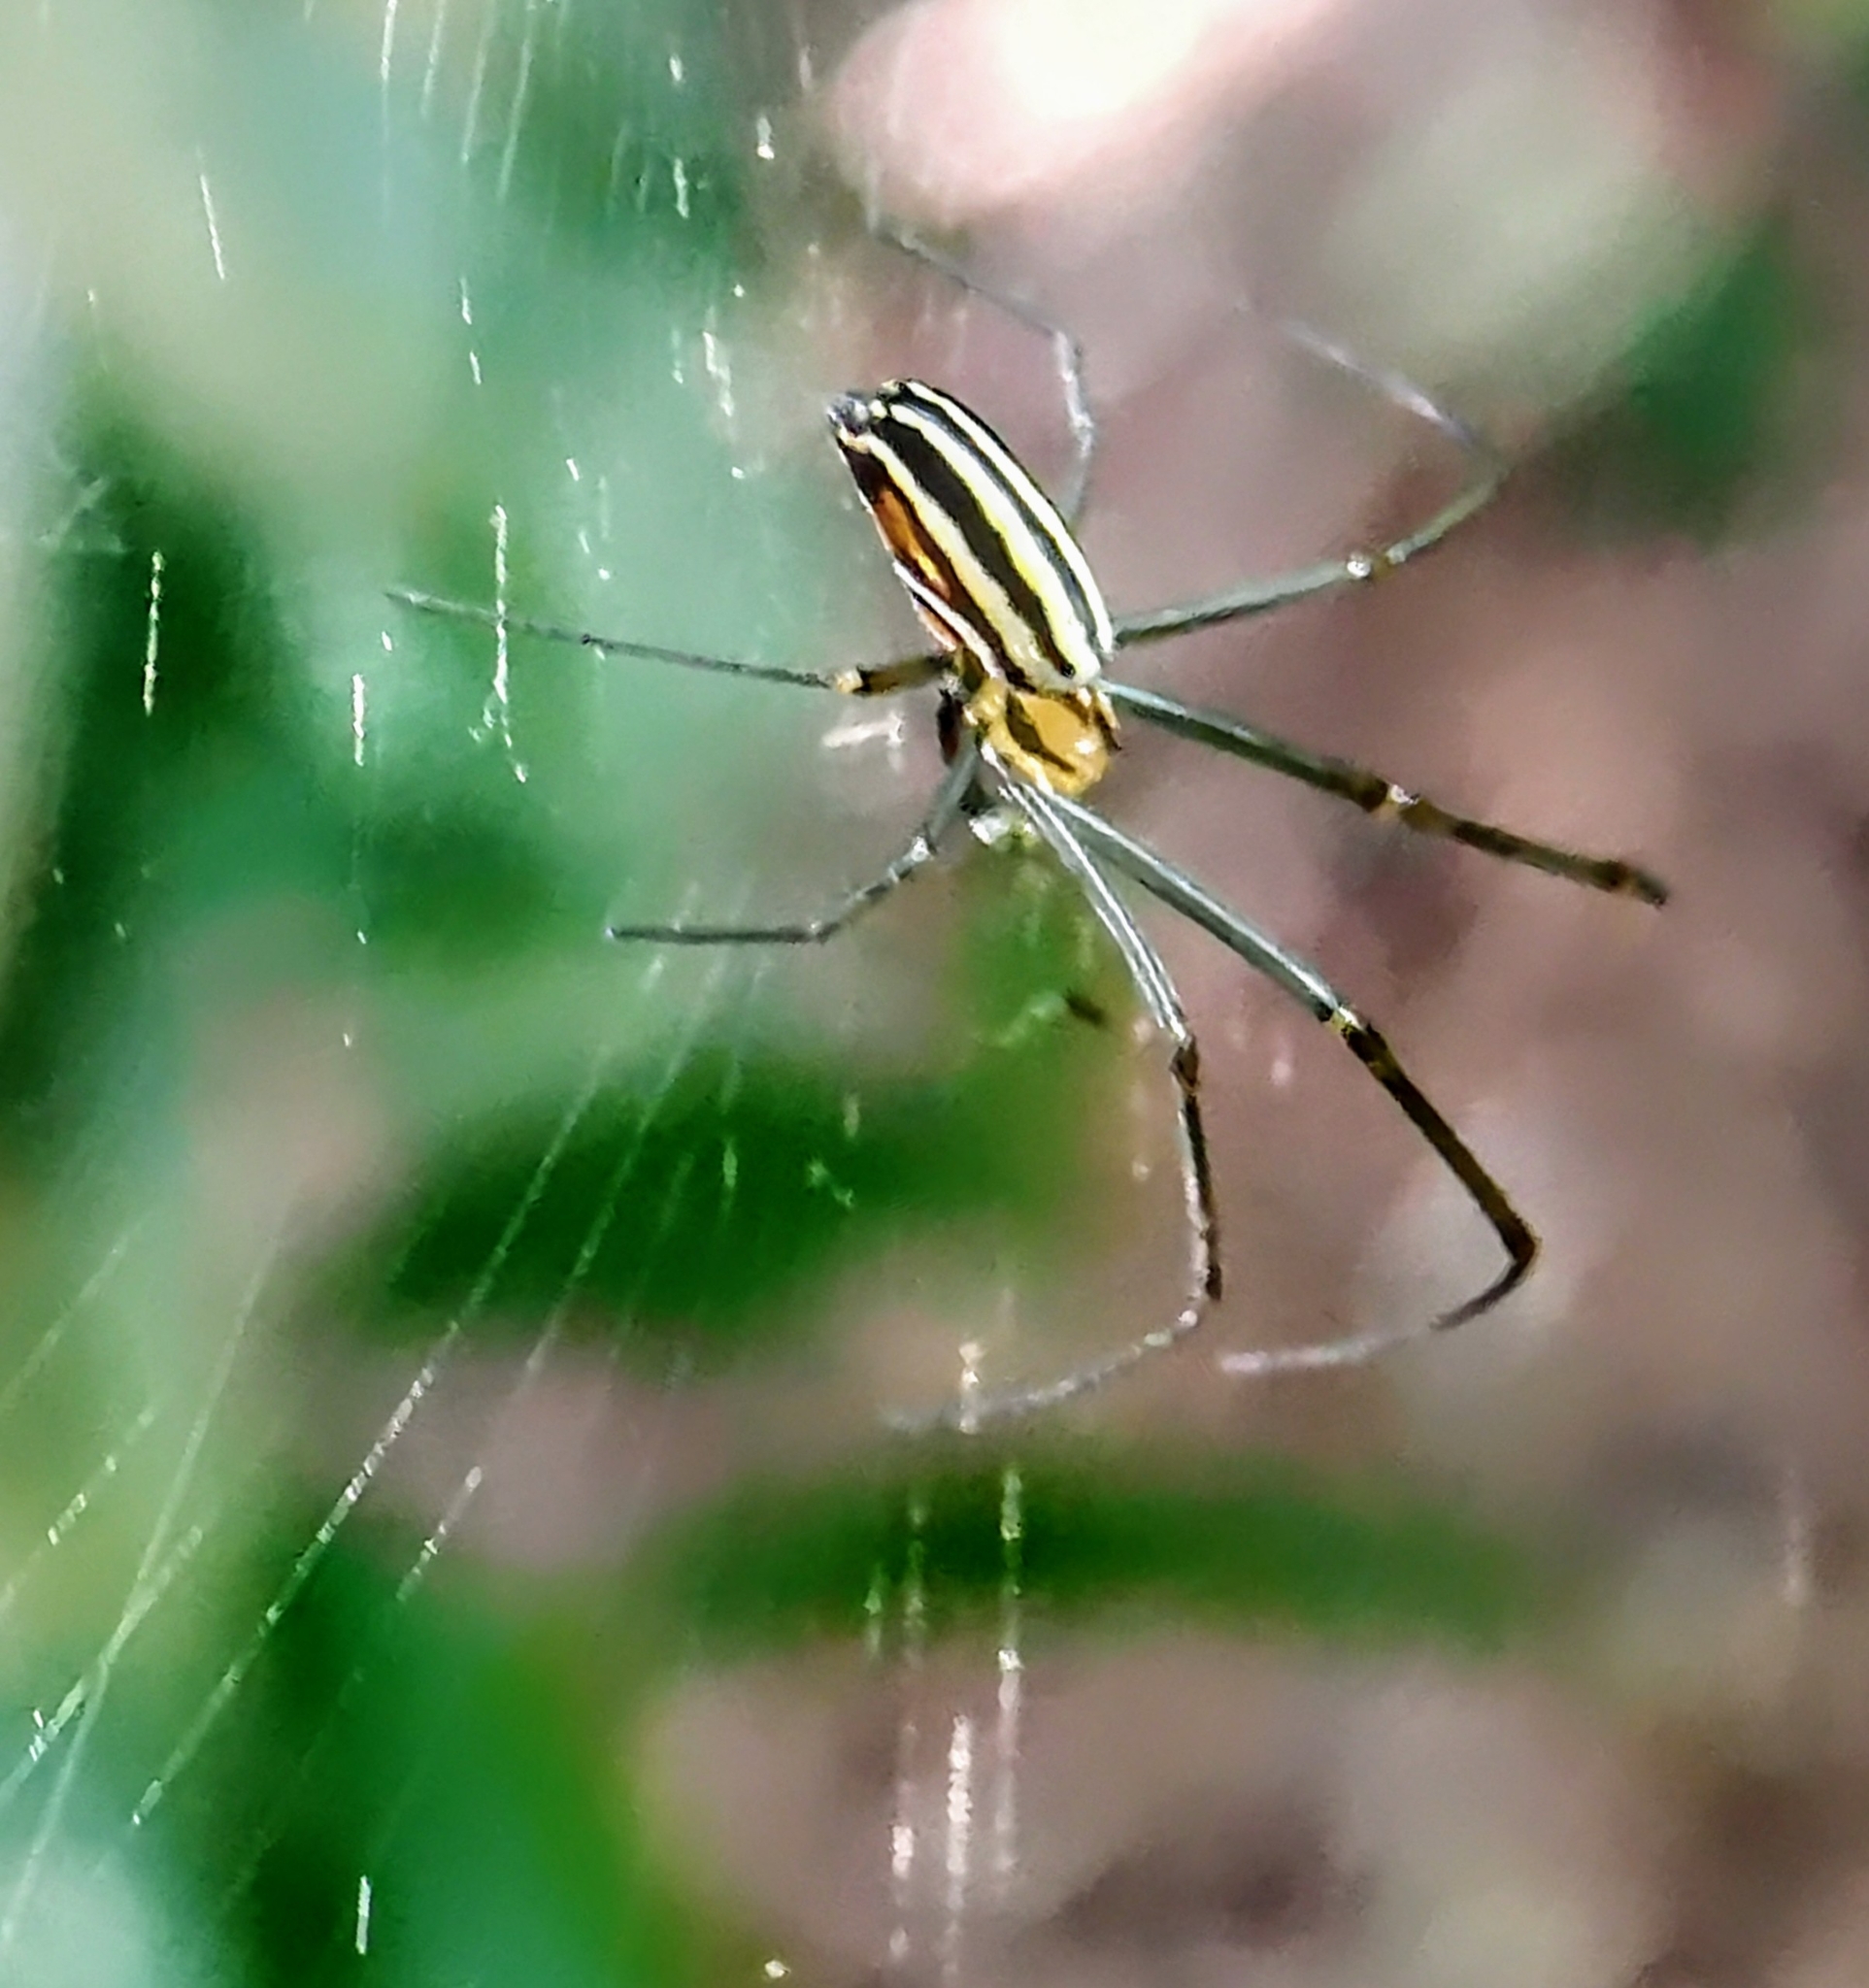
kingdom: Animalia
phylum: Arthropoda
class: Arachnida
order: Araneae
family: Araneidae
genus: Nephila
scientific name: Nephila pilipes
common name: Giant golden orb weaver
